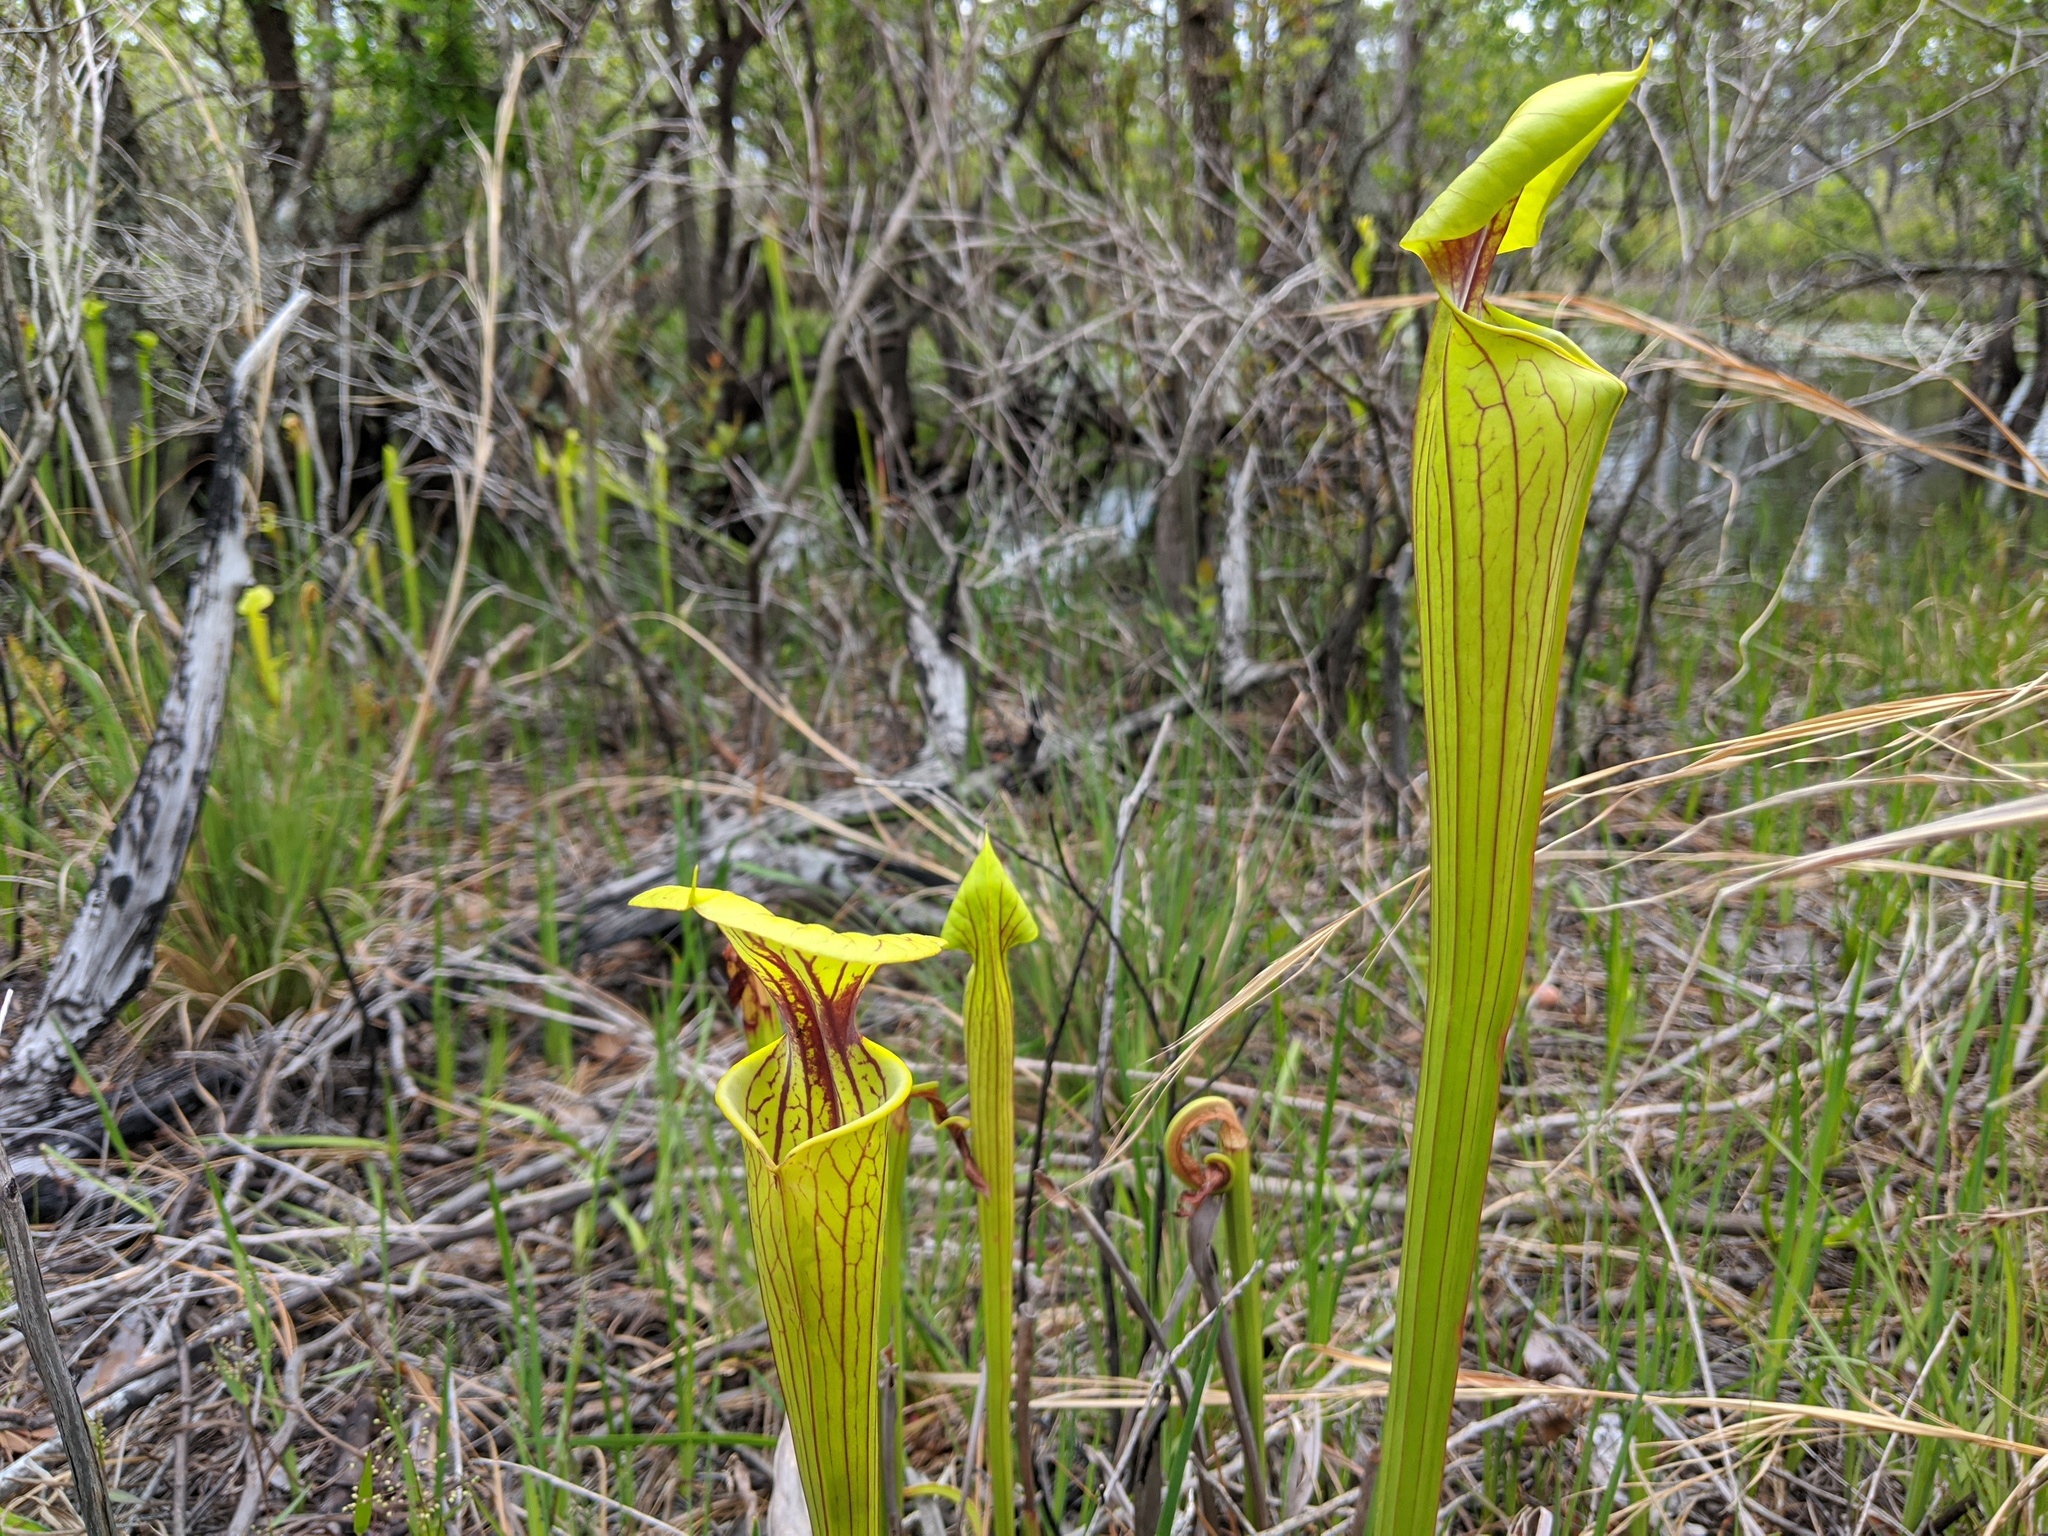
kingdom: Plantae
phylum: Tracheophyta
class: Magnoliopsida
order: Ericales
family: Sarraceniaceae
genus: Sarracenia
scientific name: Sarracenia flava
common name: Trumpets
